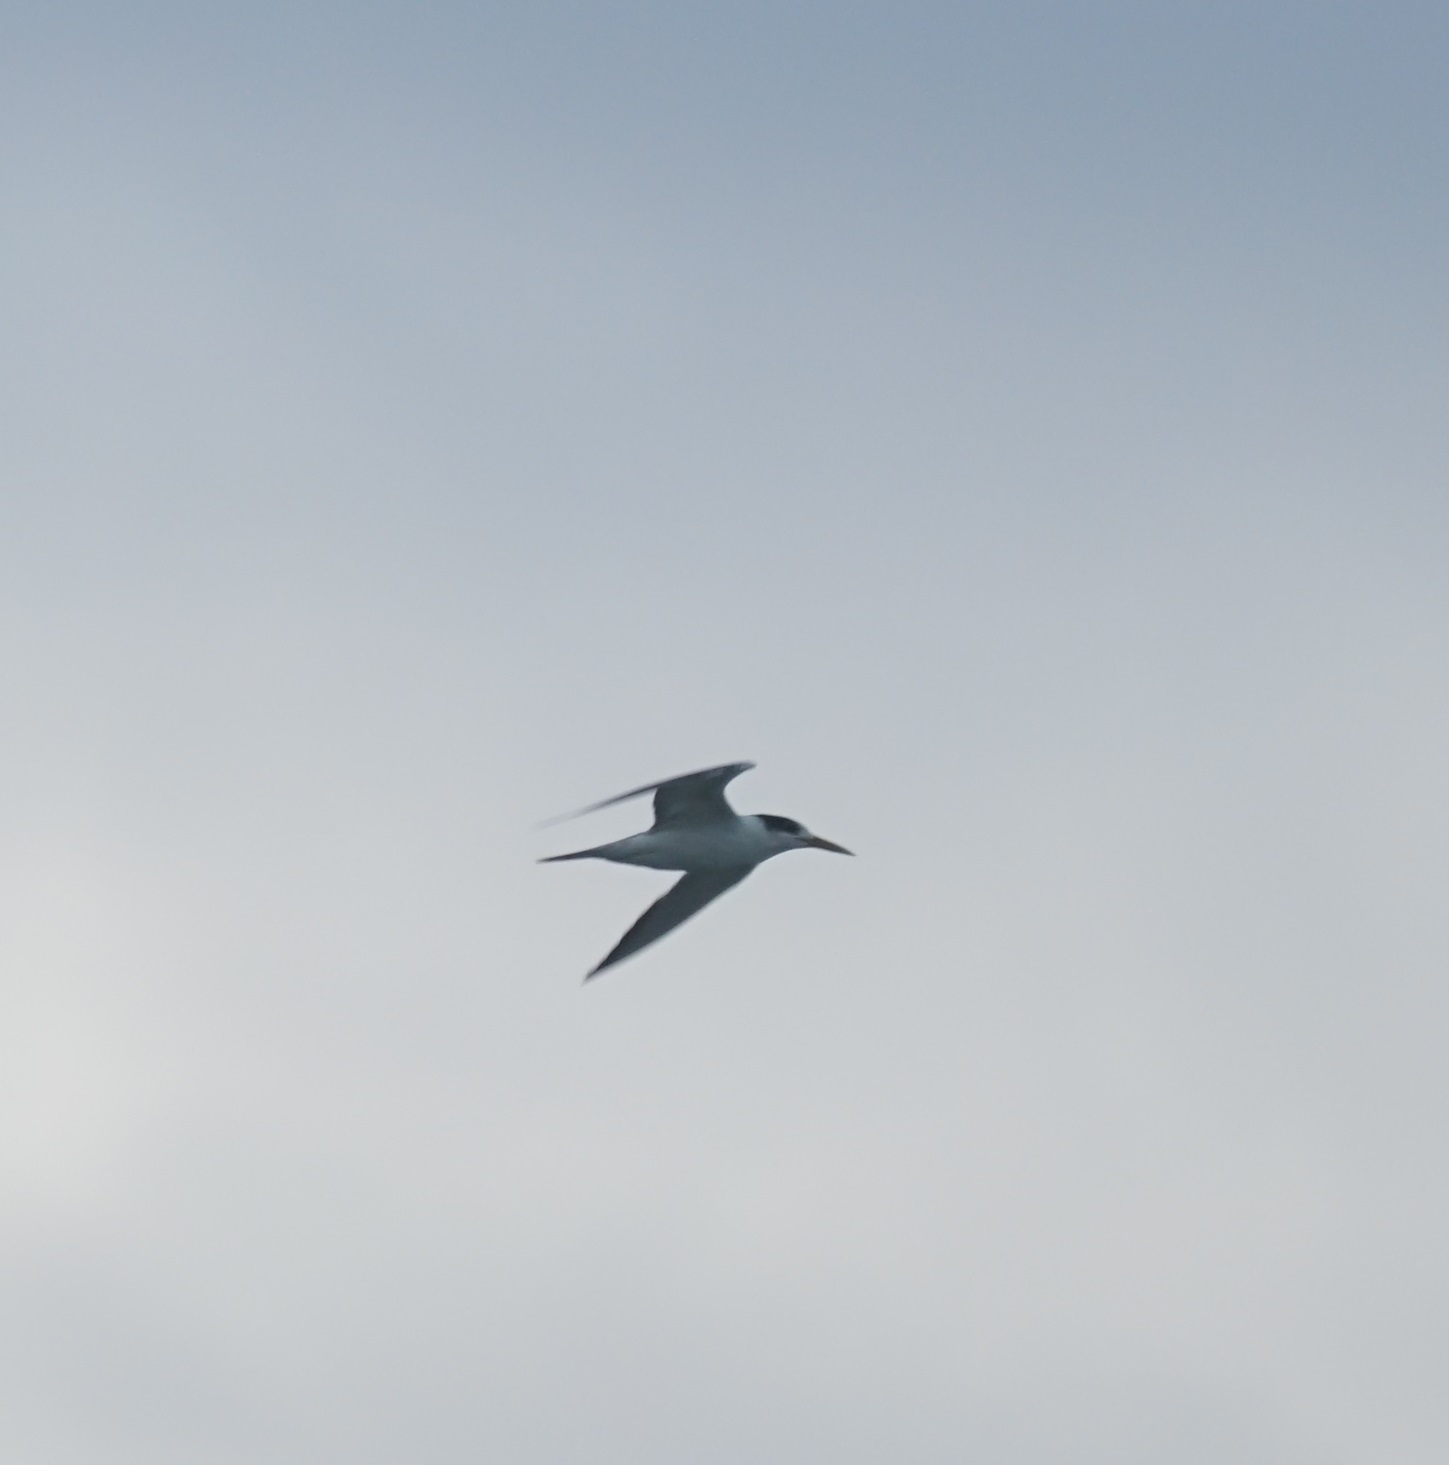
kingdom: Animalia
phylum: Chordata
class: Aves
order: Charadriiformes
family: Laridae
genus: Thalasseus
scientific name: Thalasseus bergii
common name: Greater crested tern
